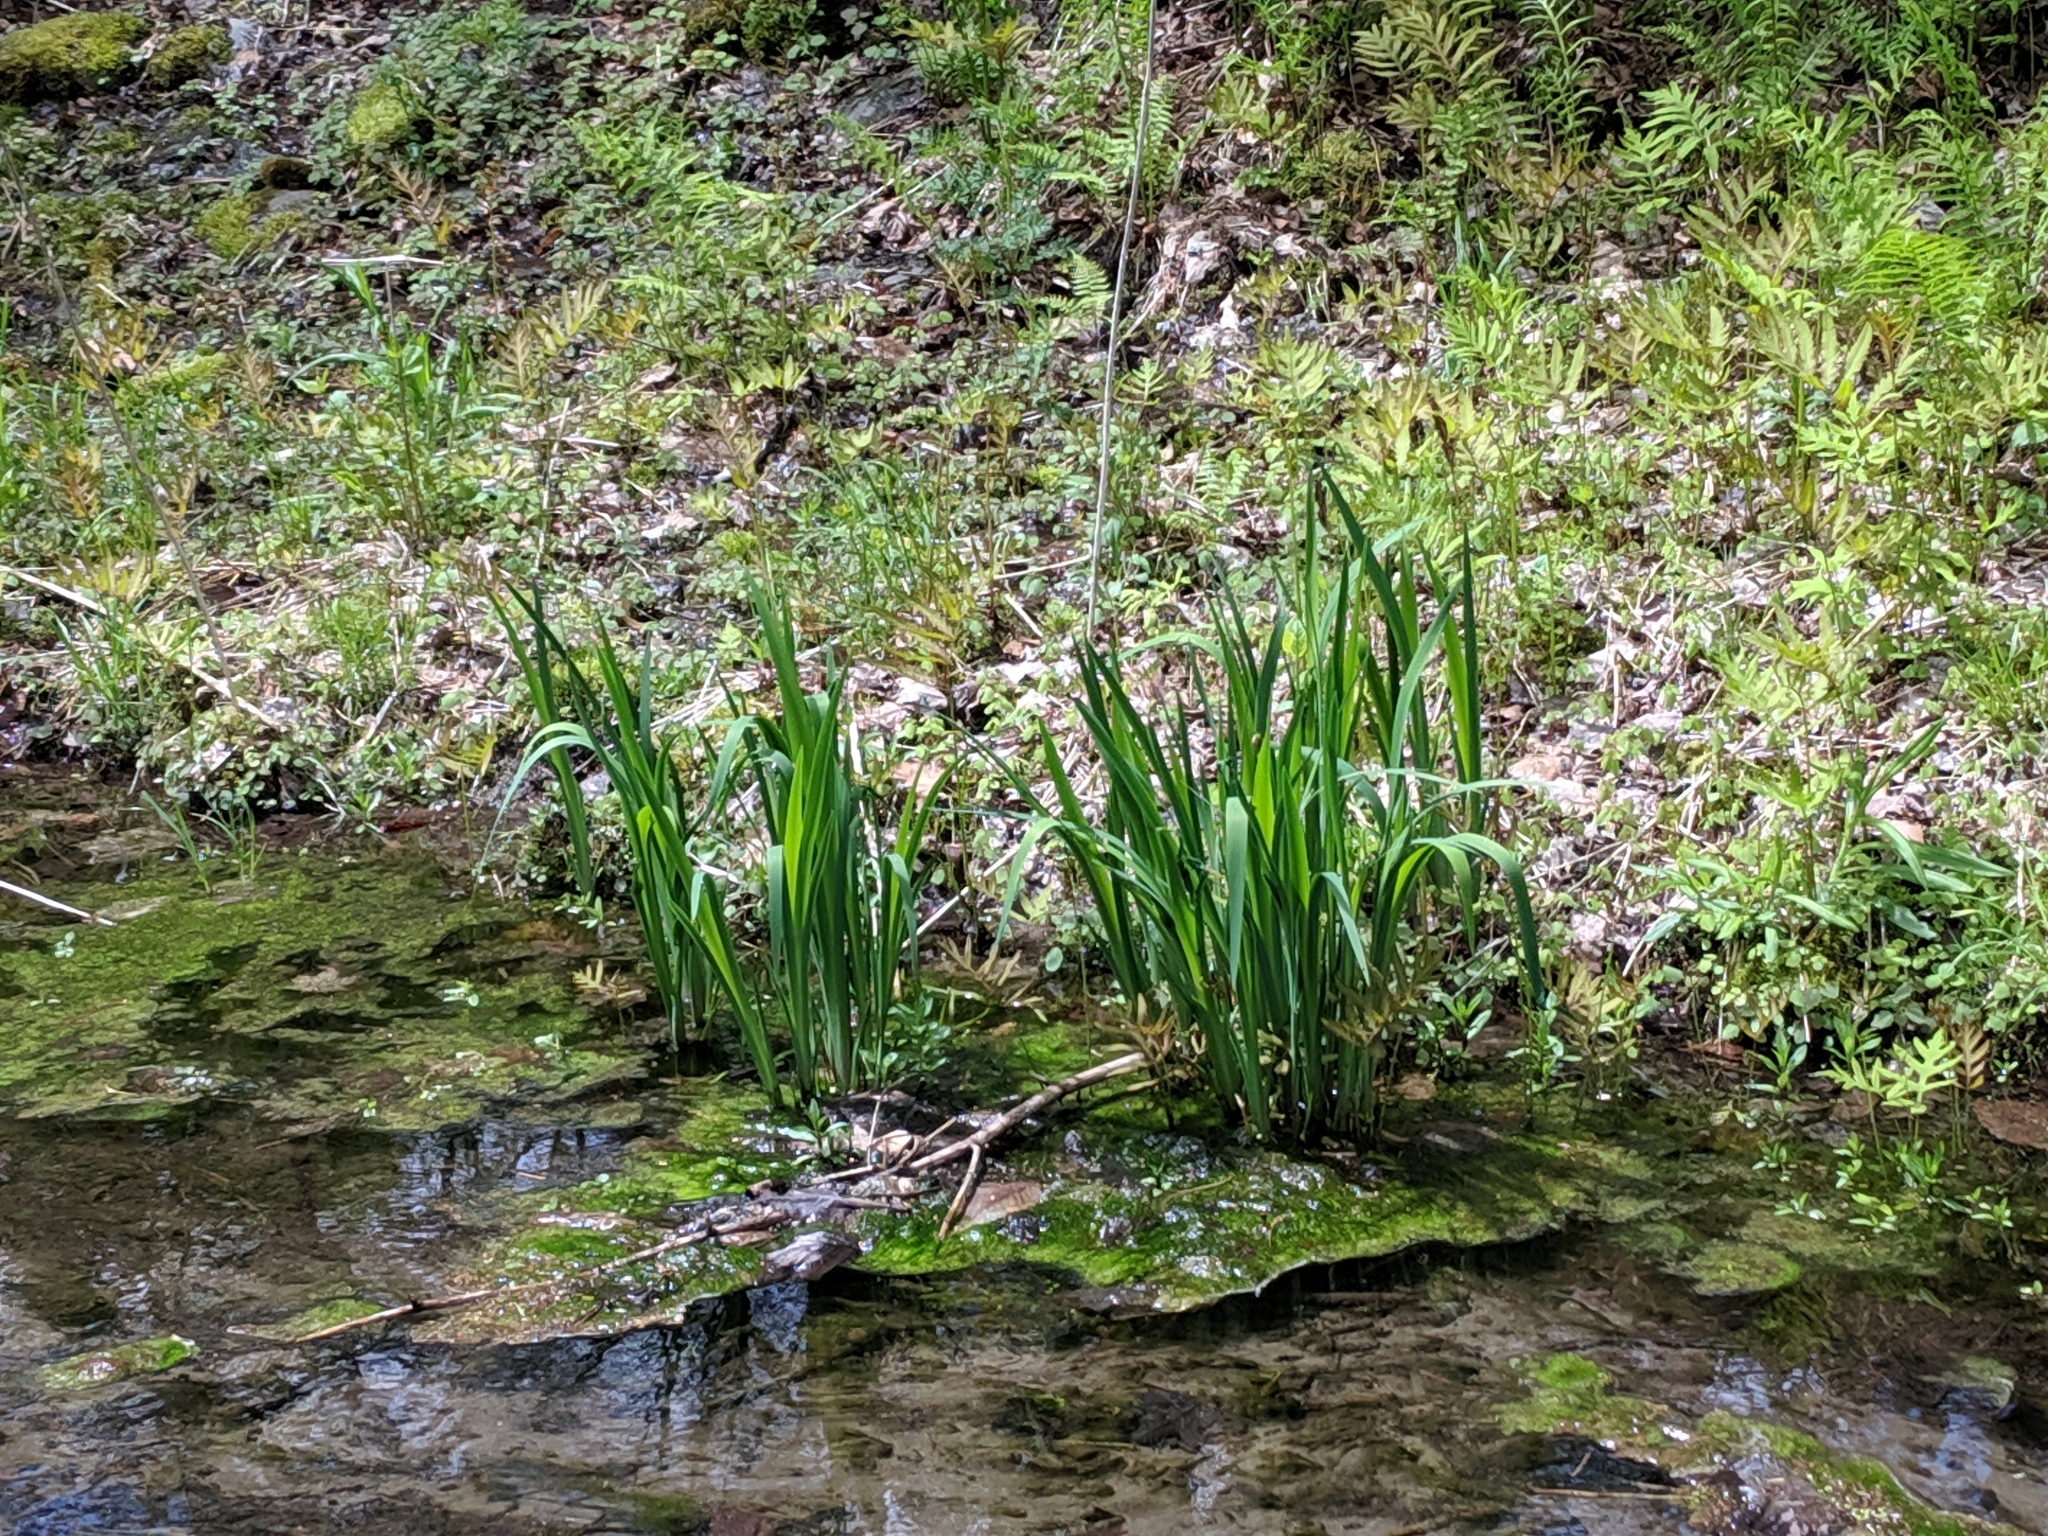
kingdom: Plantae
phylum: Tracheophyta
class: Liliopsida
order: Asparagales
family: Iridaceae
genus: Iris
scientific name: Iris
